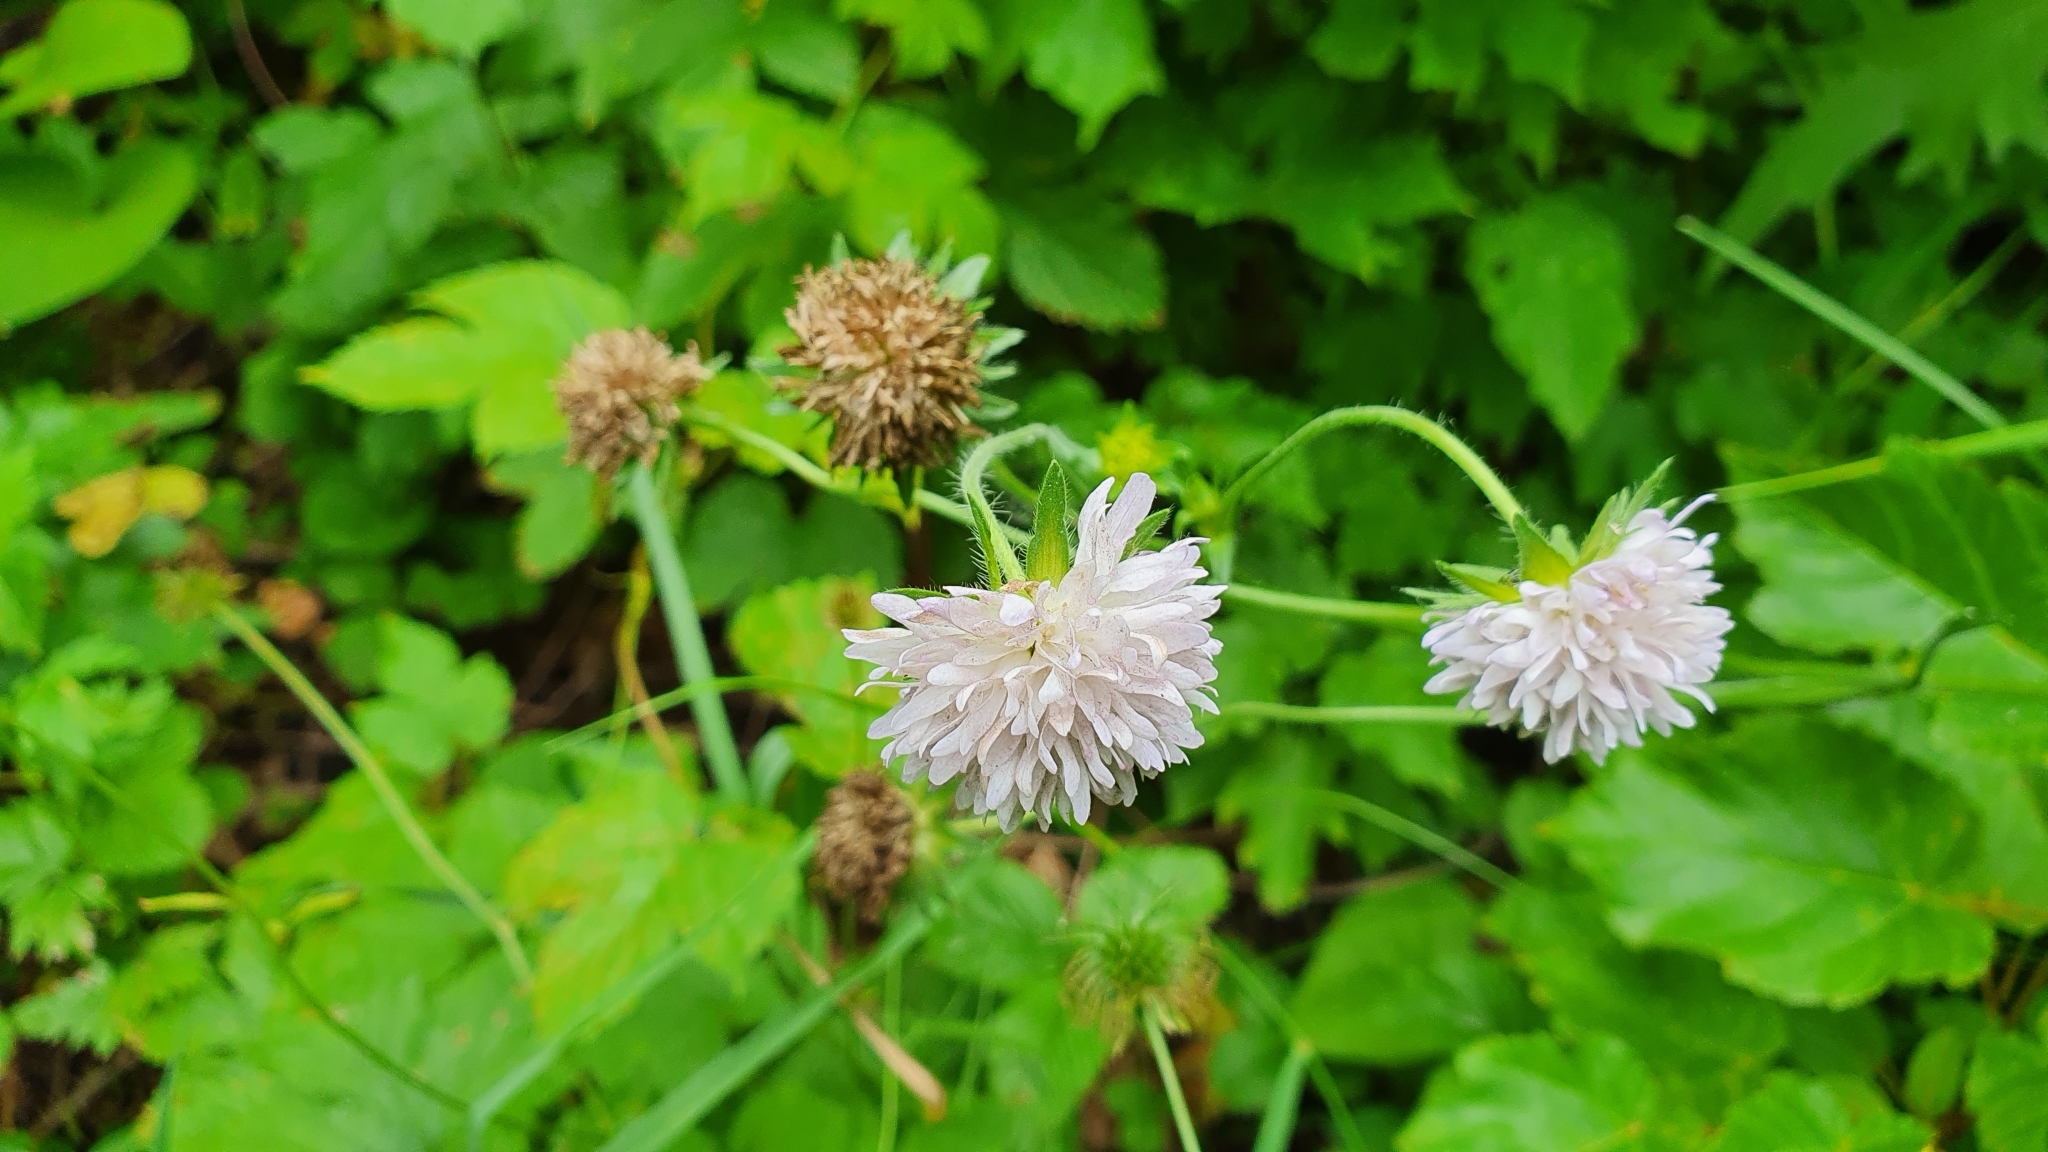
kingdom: Plantae
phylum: Tracheophyta
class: Magnoliopsida
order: Dipsacales
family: Caprifoliaceae
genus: Knautia
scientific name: Knautia arvensis
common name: Field scabiosa
